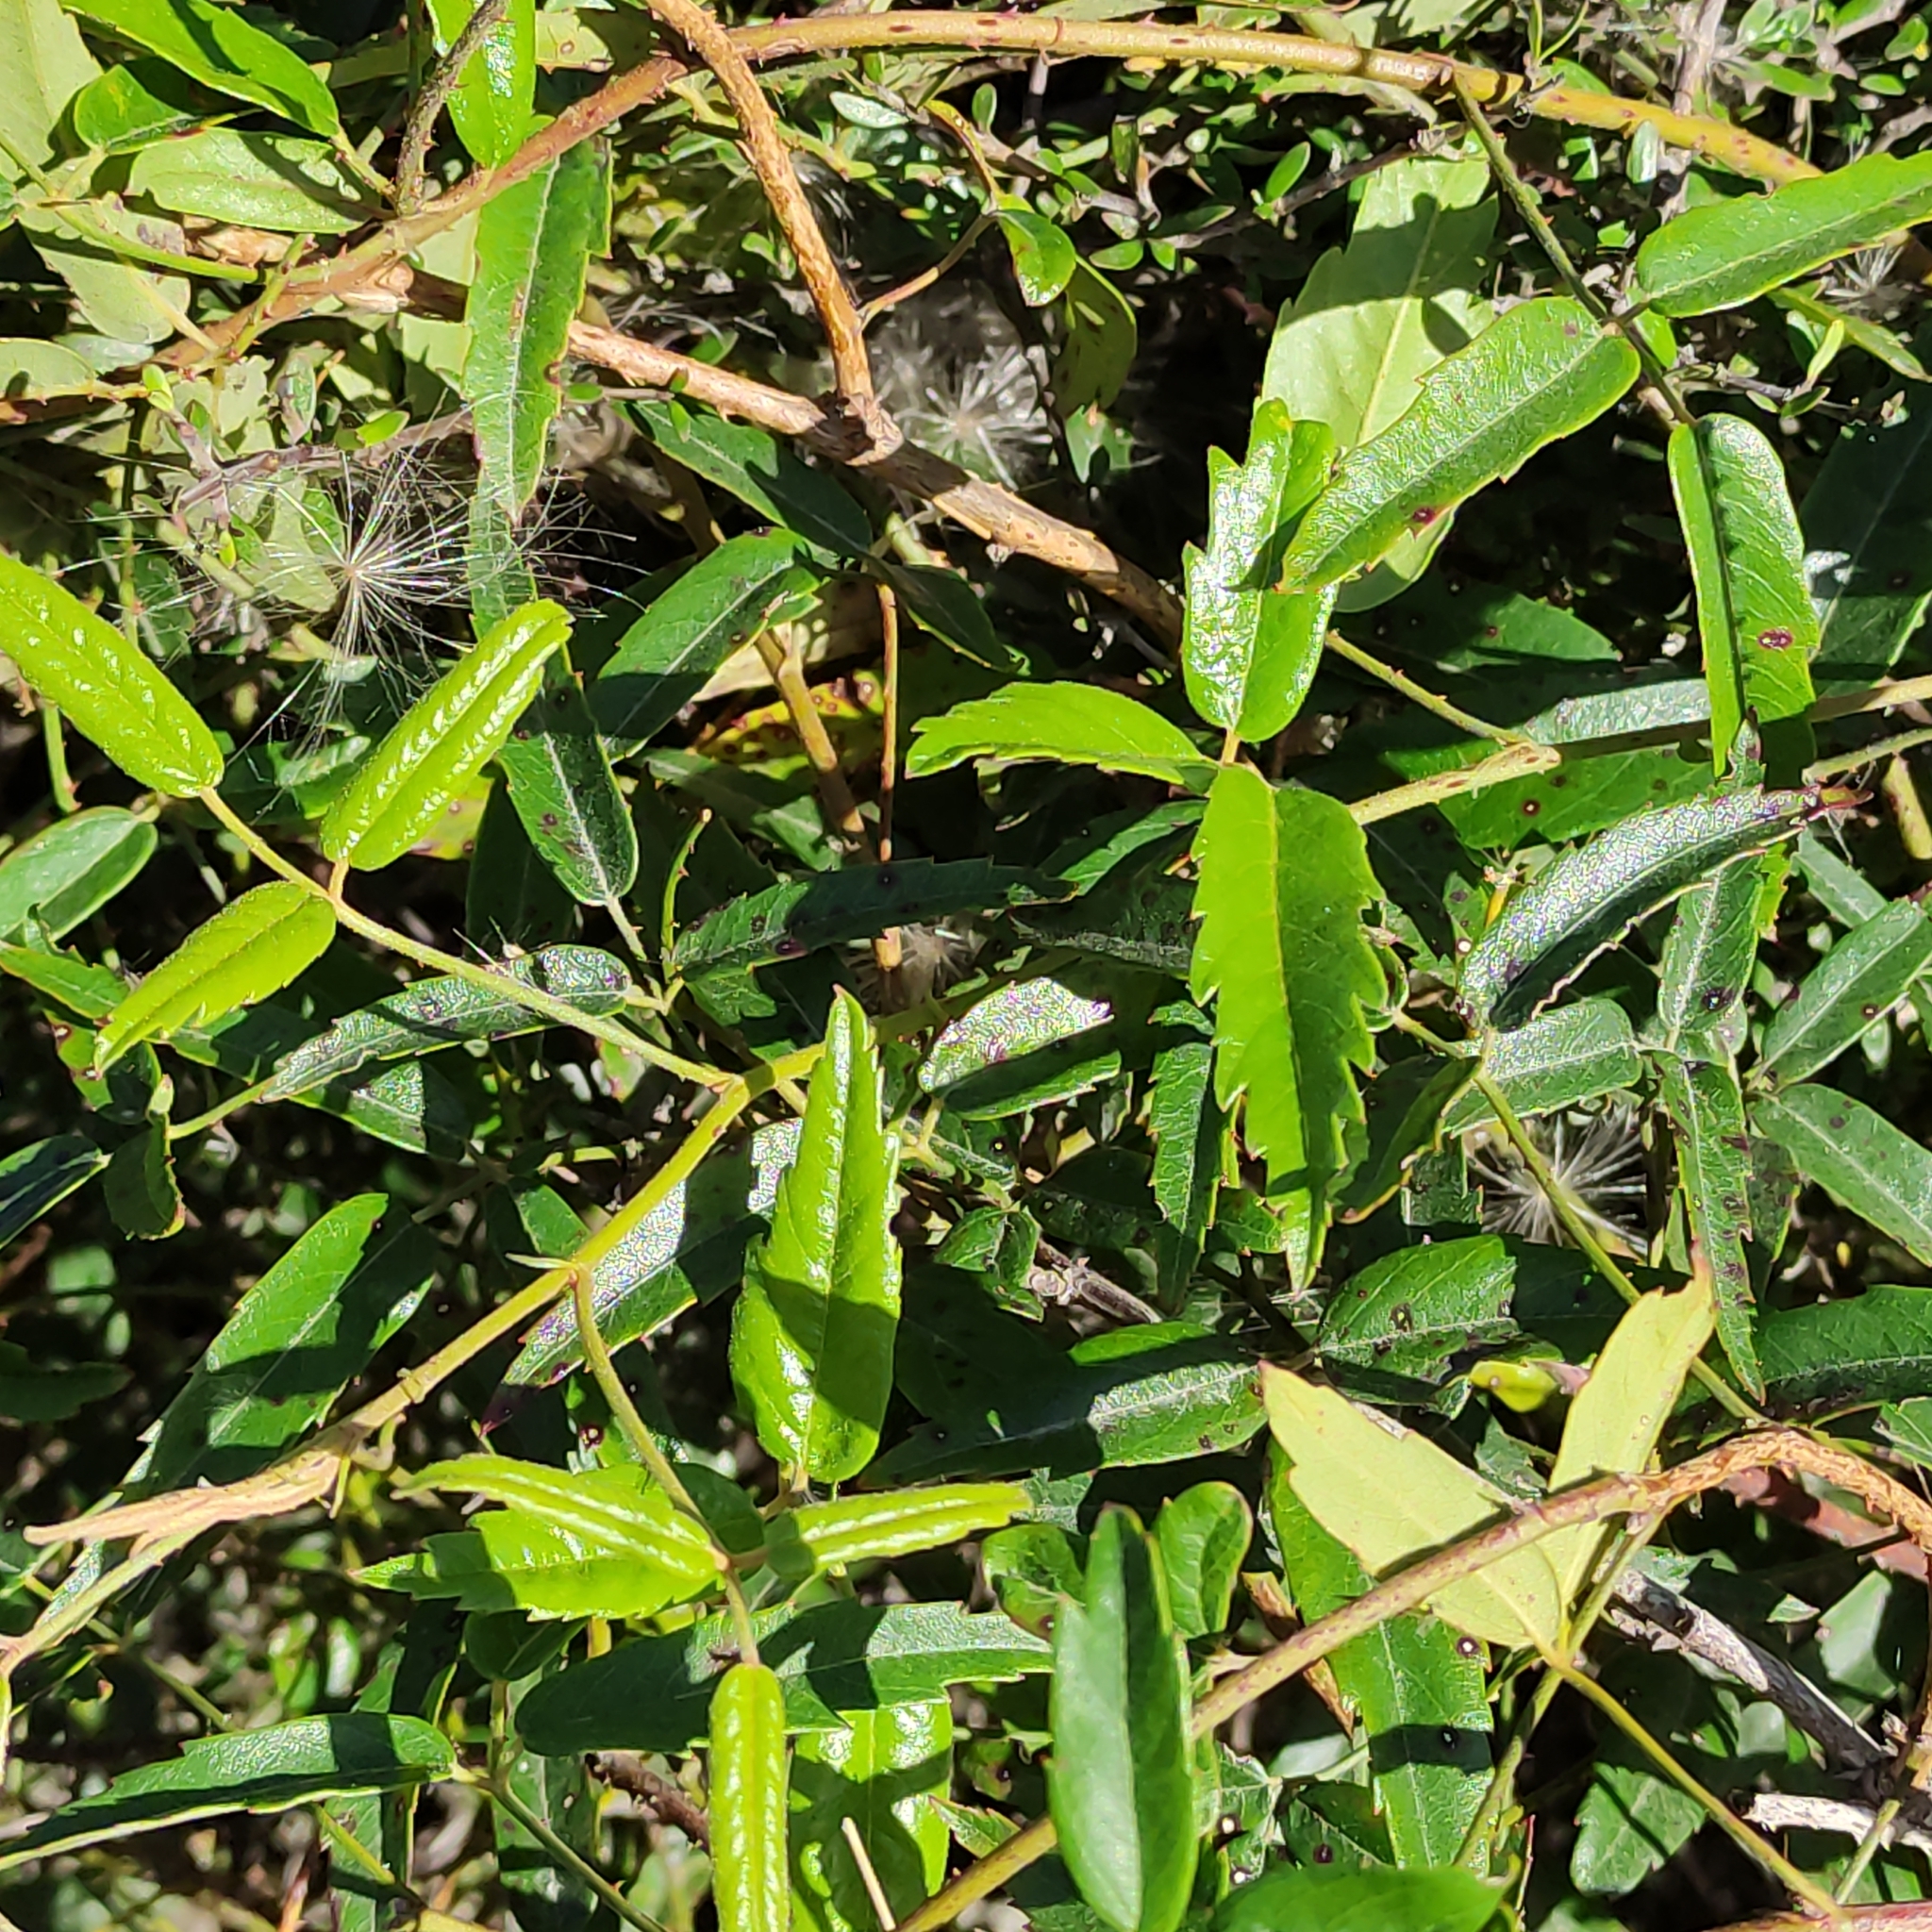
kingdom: Plantae
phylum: Tracheophyta
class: Magnoliopsida
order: Rosales
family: Rosaceae
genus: Rubus
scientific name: Rubus schmidelioides
